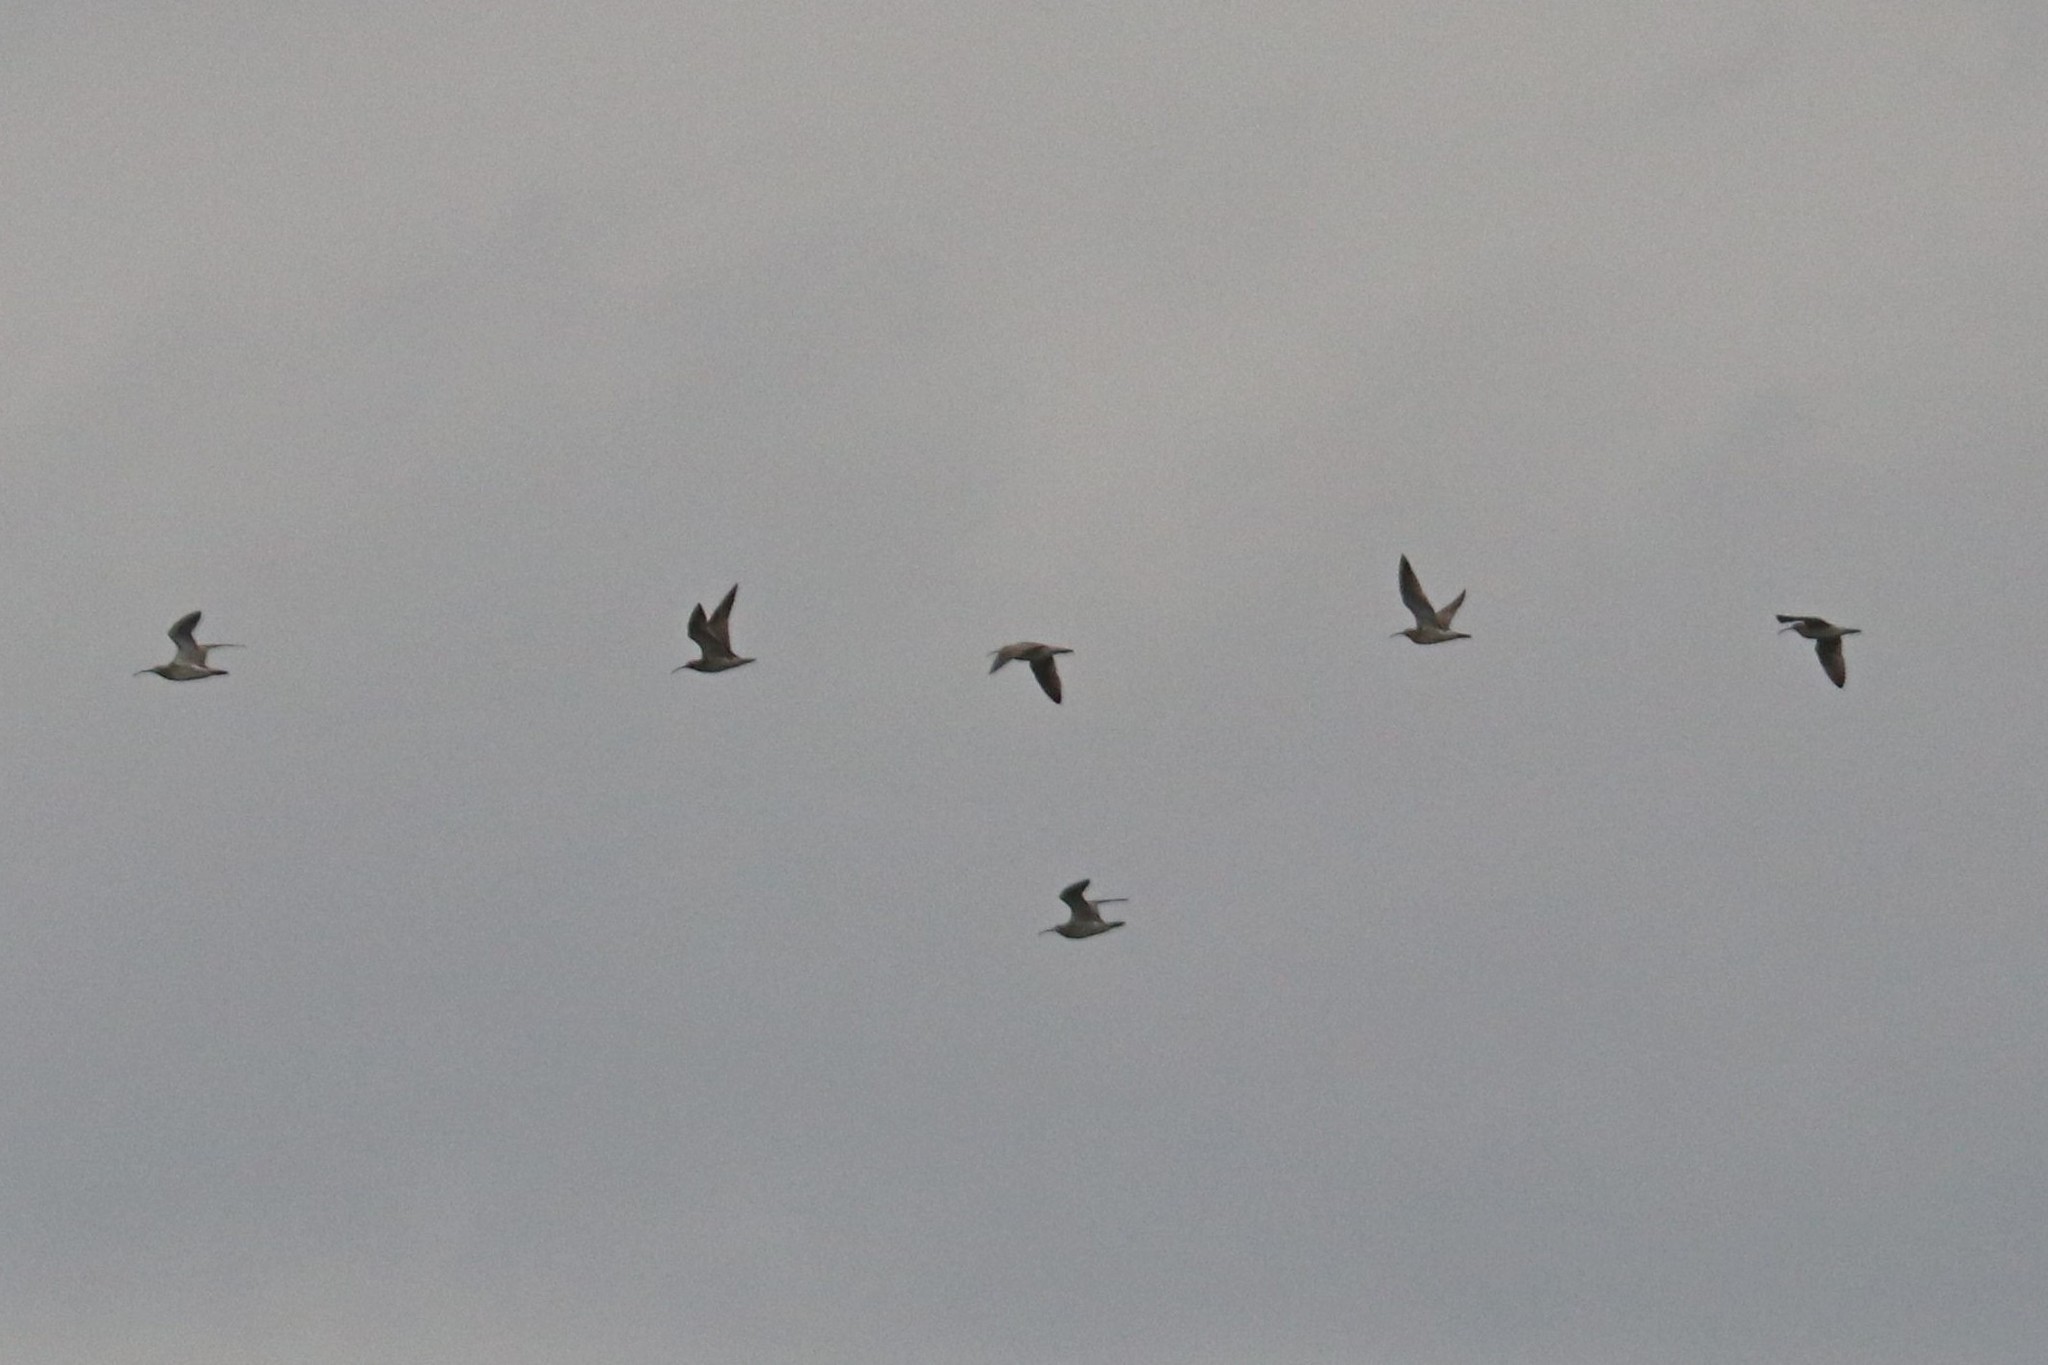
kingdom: Animalia
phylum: Chordata
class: Aves
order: Charadriiformes
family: Scolopacidae
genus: Numenius
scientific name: Numenius phaeopus
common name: Whimbrel
